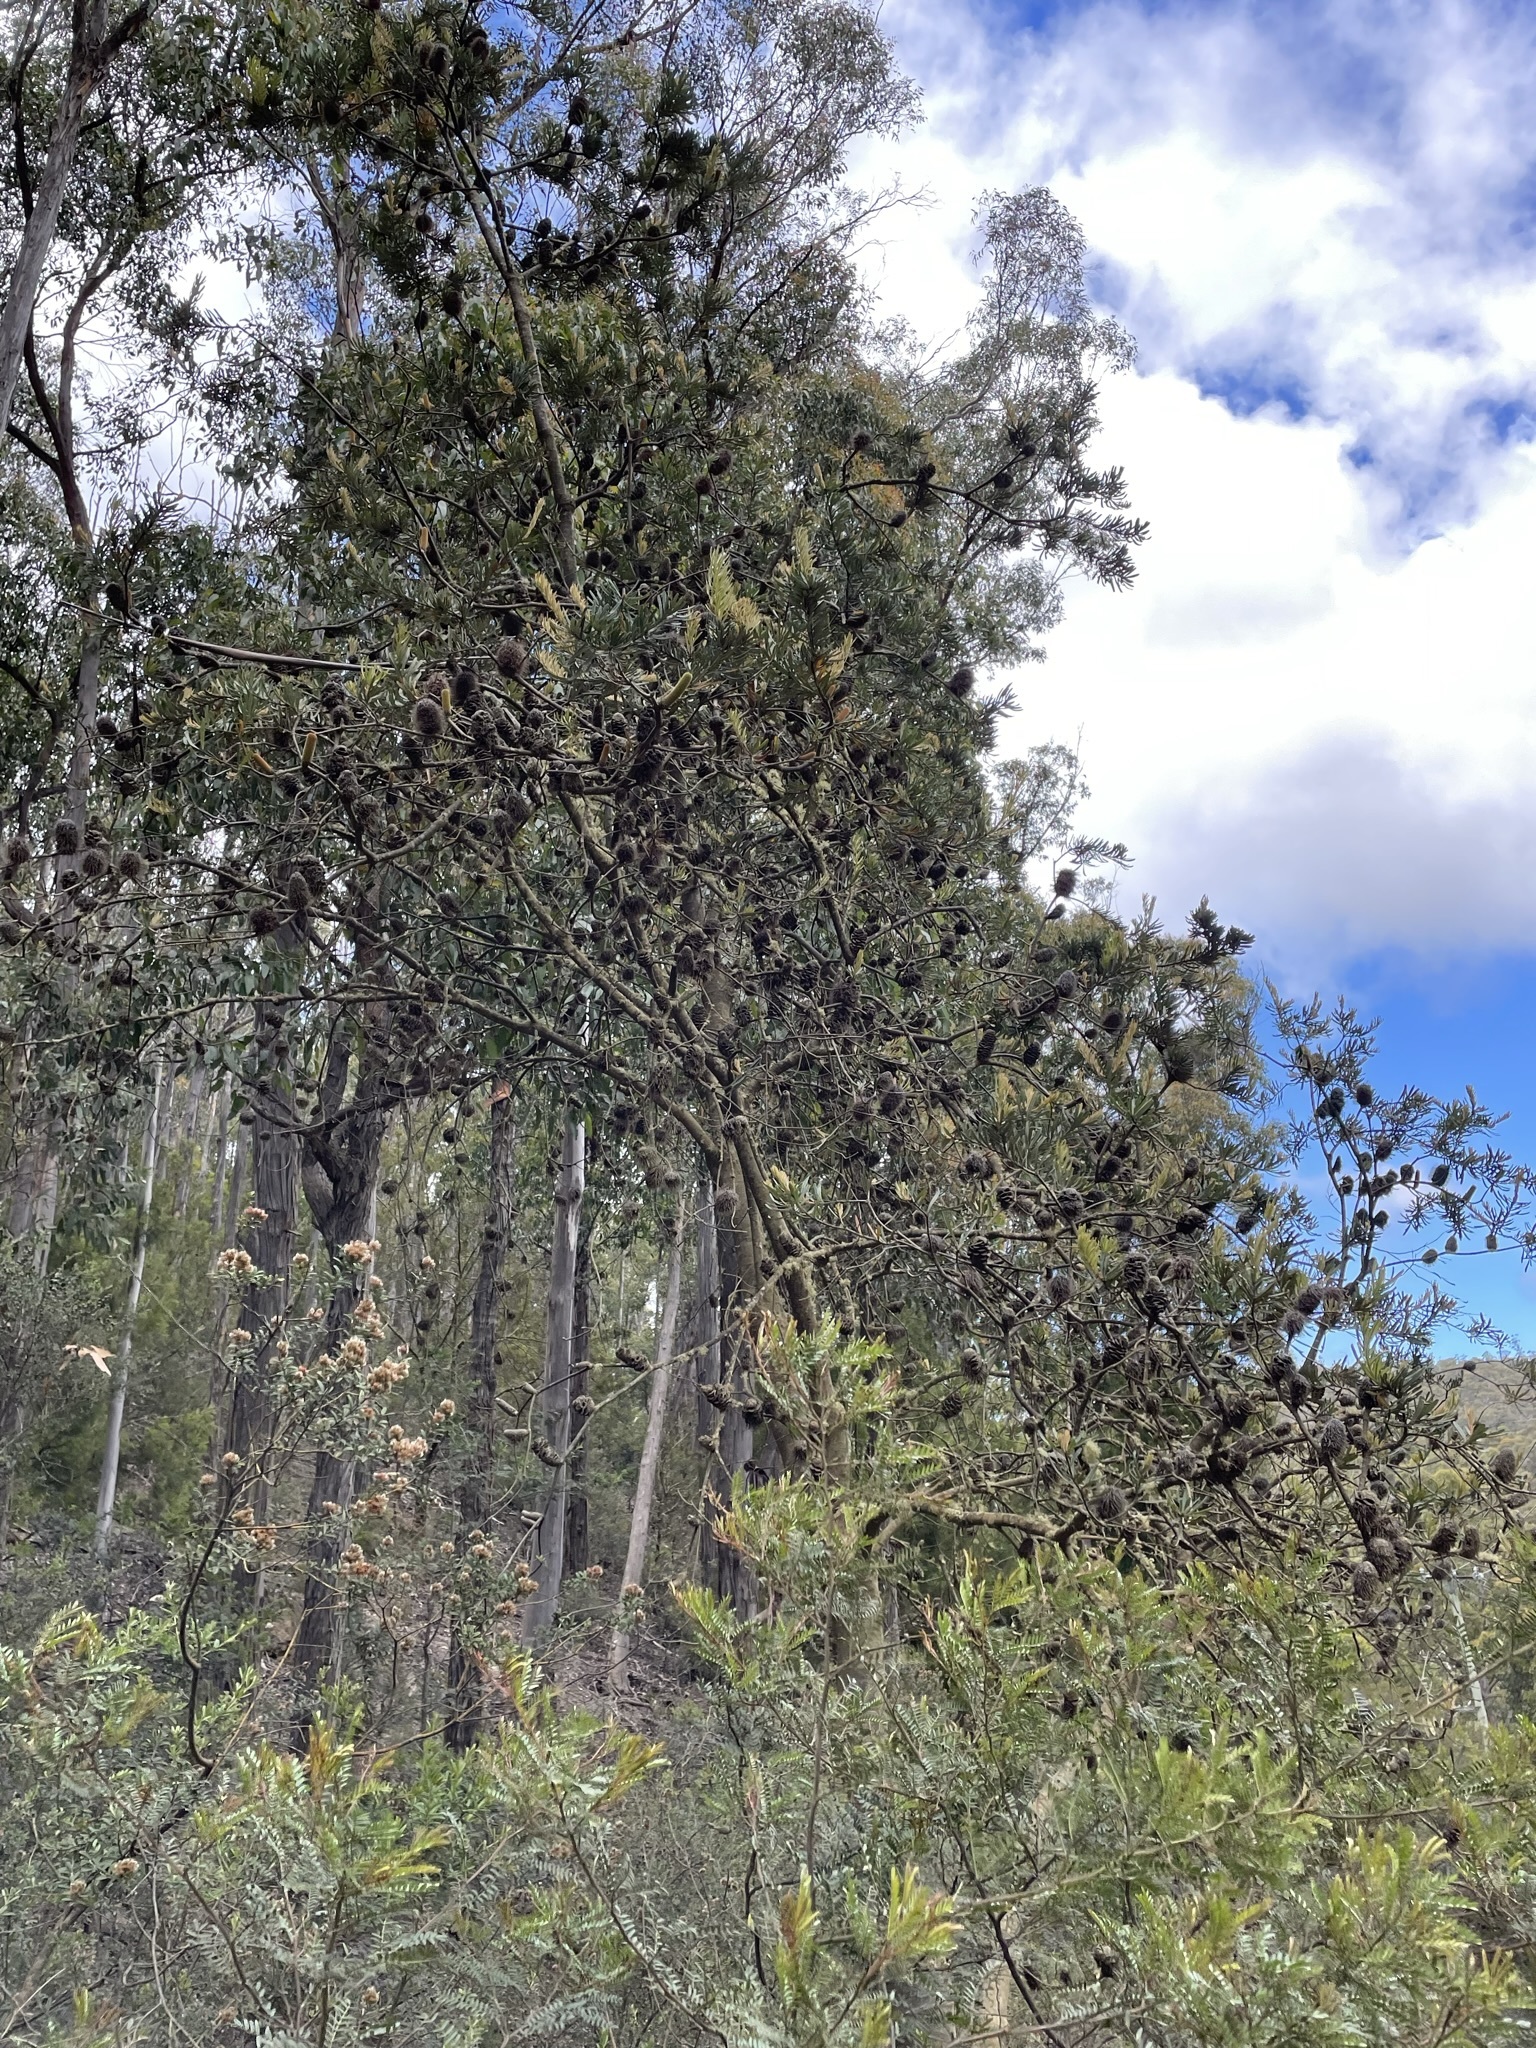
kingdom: Plantae
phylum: Tracheophyta
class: Magnoliopsida
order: Proteales
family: Proteaceae
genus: Banksia
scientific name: Banksia marginata
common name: Silver banksia
